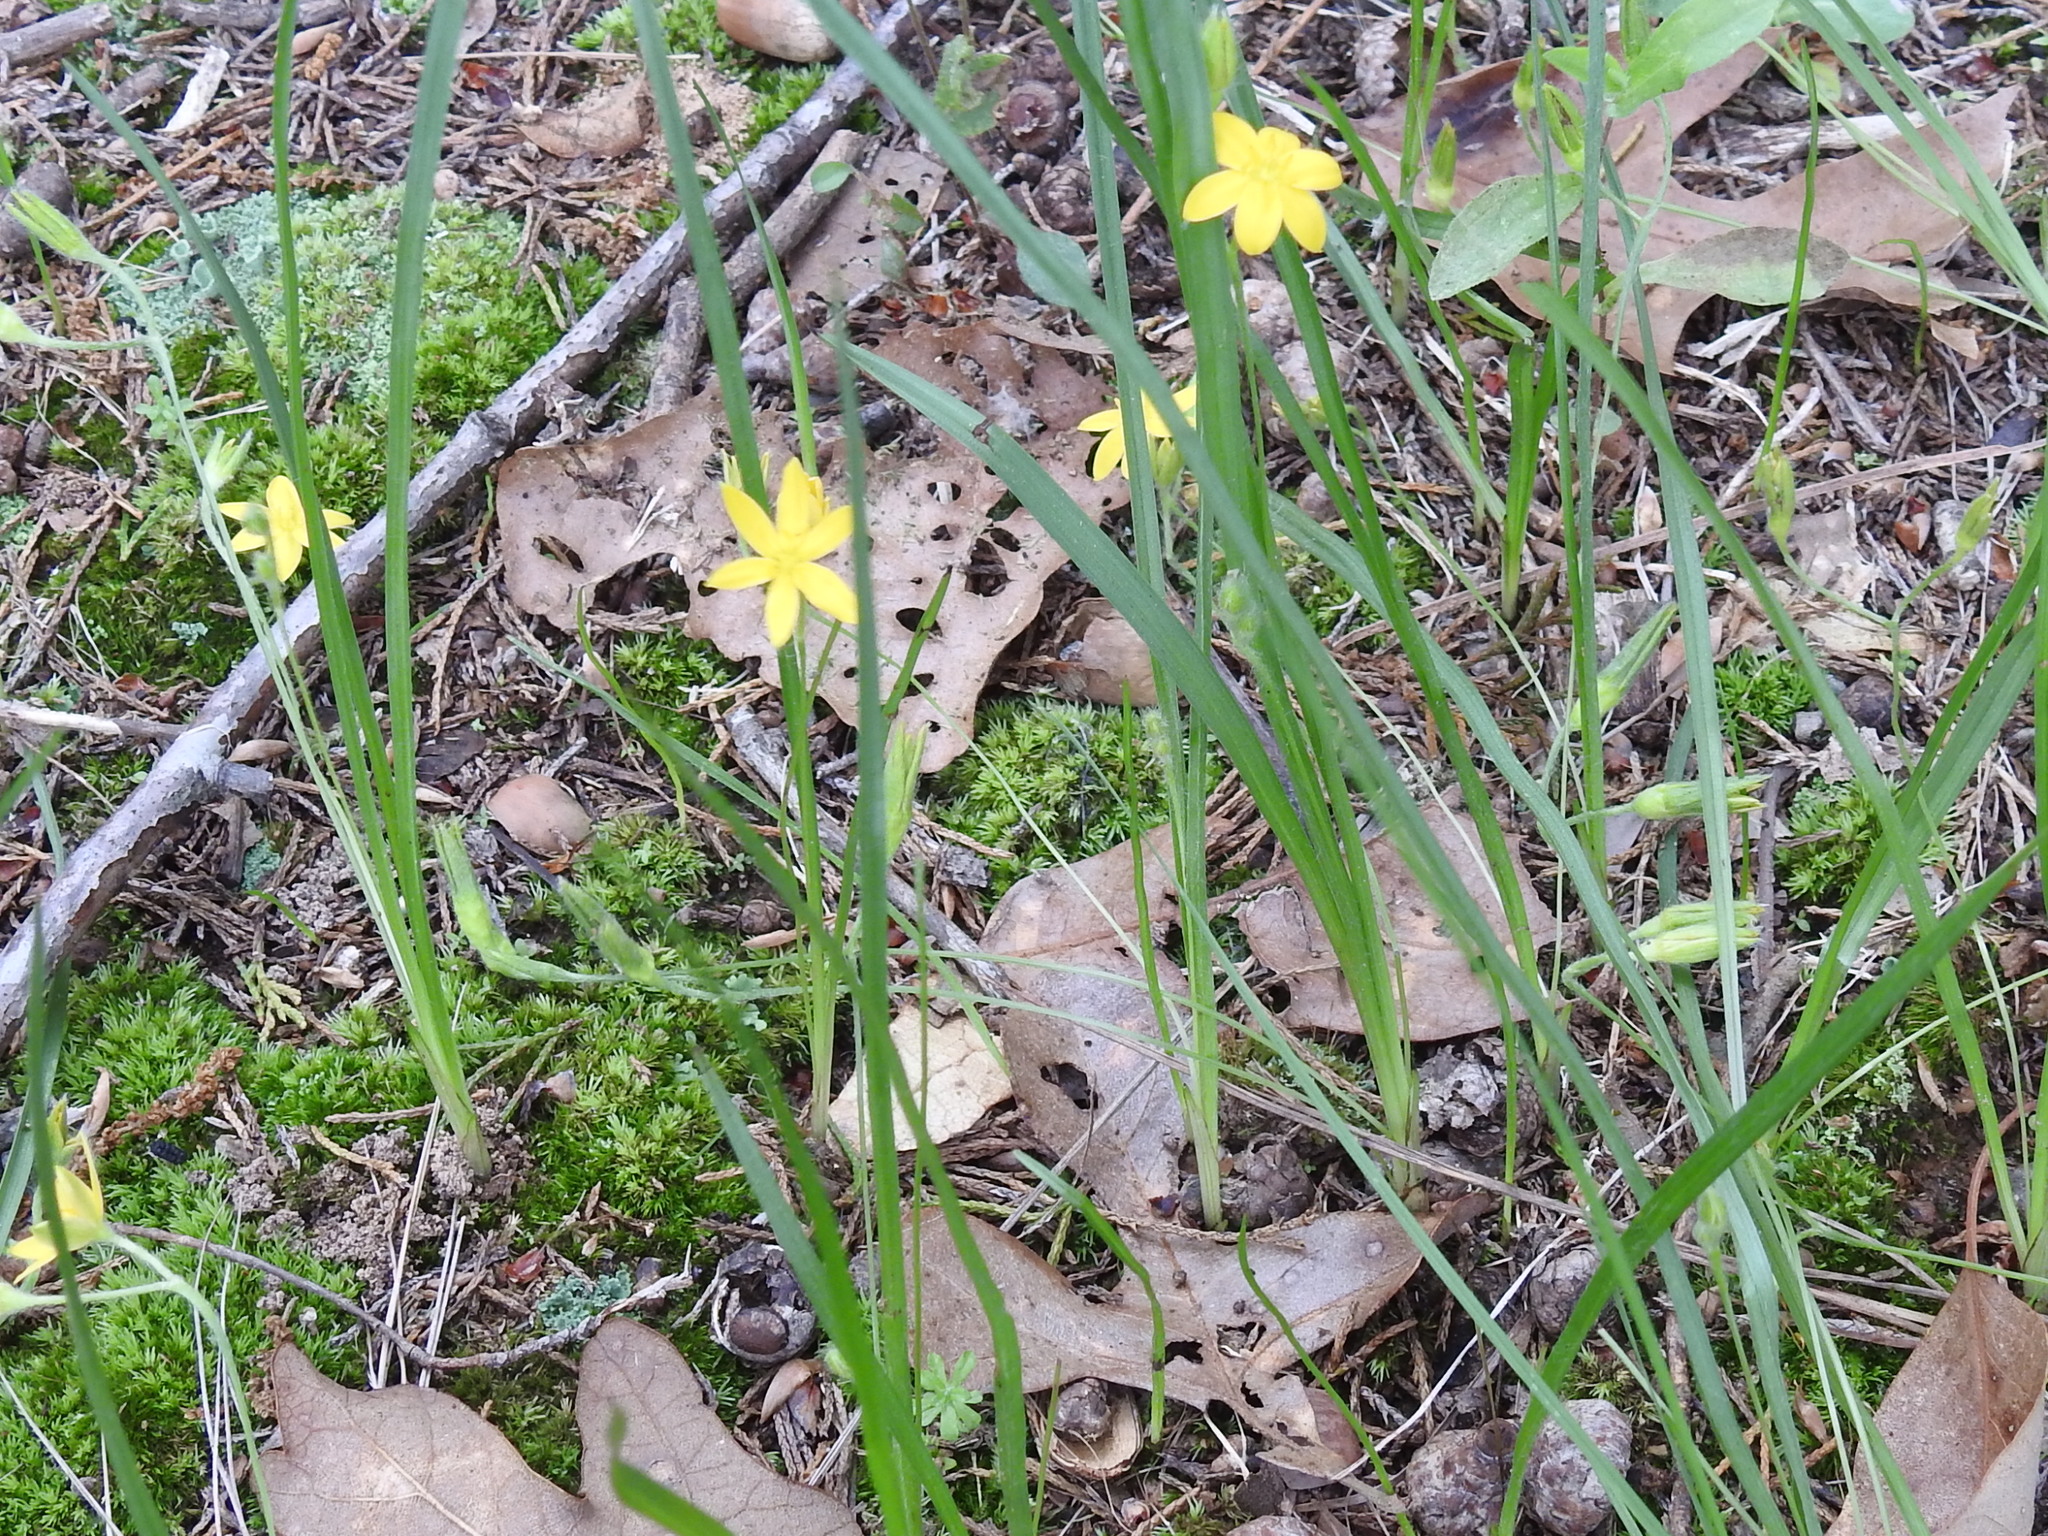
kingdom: Plantae
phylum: Tracheophyta
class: Liliopsida
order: Asparagales
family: Hypoxidaceae
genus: Hypoxis
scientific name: Hypoxis hirsuta
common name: Common goldstar
